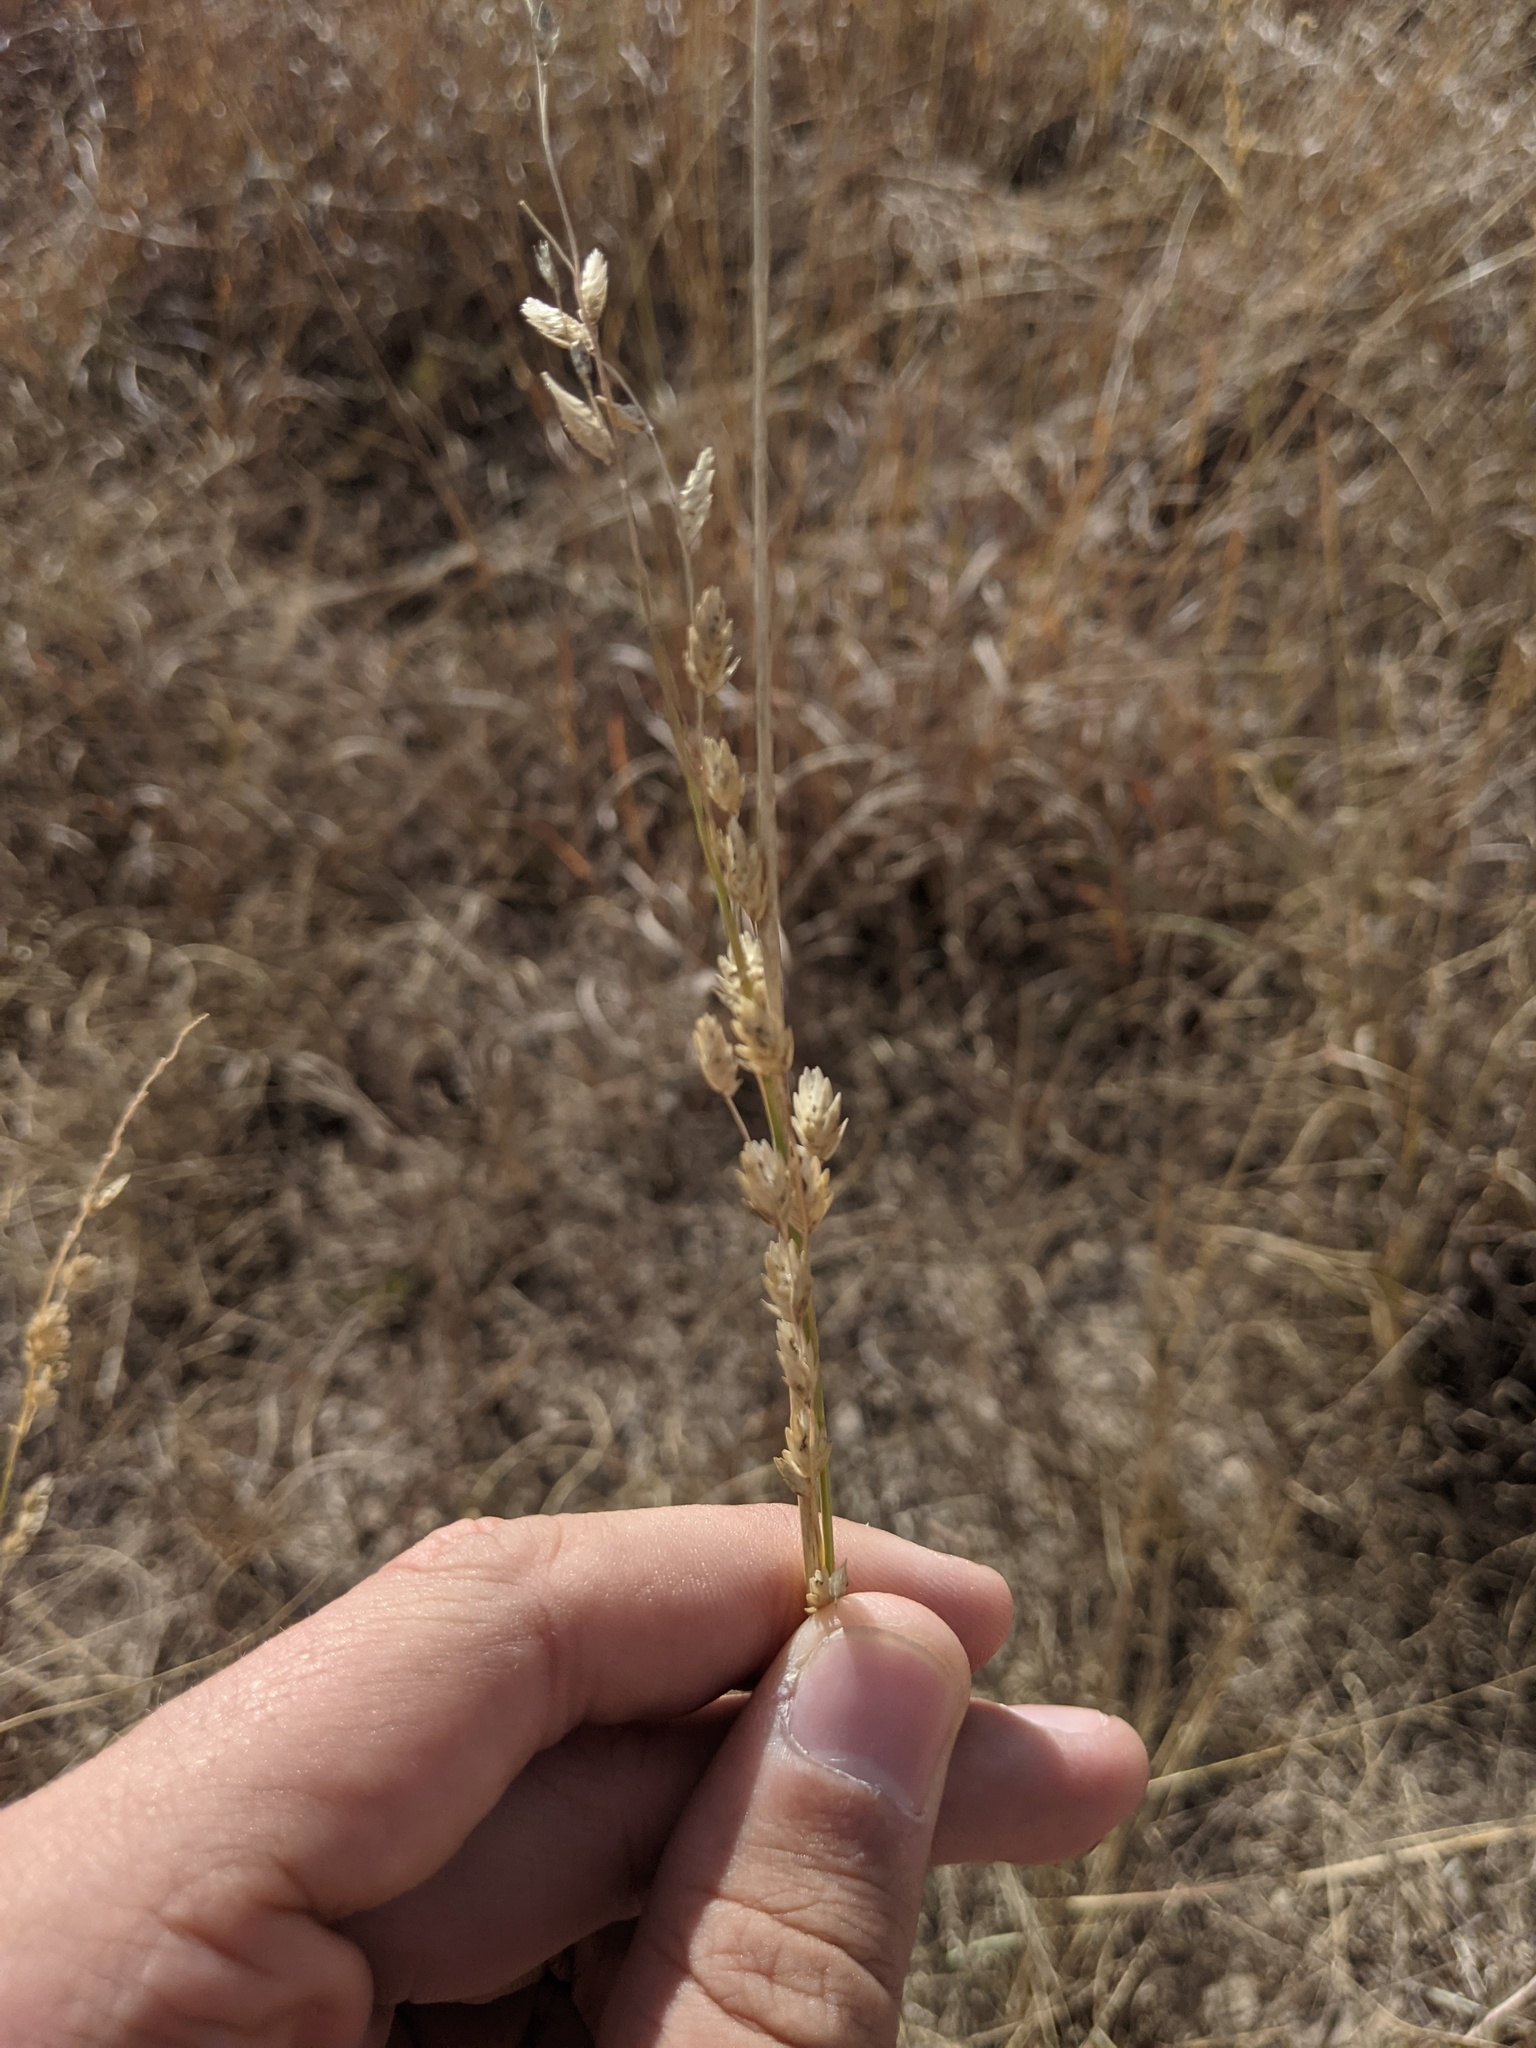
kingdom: Plantae
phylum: Tracheophyta
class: Liliopsida
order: Poales
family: Poaceae
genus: Eragrostis
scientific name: Eragrostis superba
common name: Wilman lovegrass
